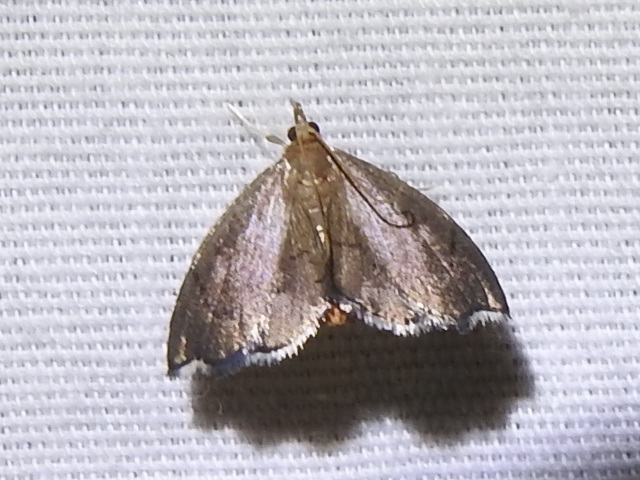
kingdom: Animalia
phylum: Arthropoda
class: Insecta
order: Lepidoptera
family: Crambidae
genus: Perispasta
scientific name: Perispasta caeculalis
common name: Titian peale's moth
